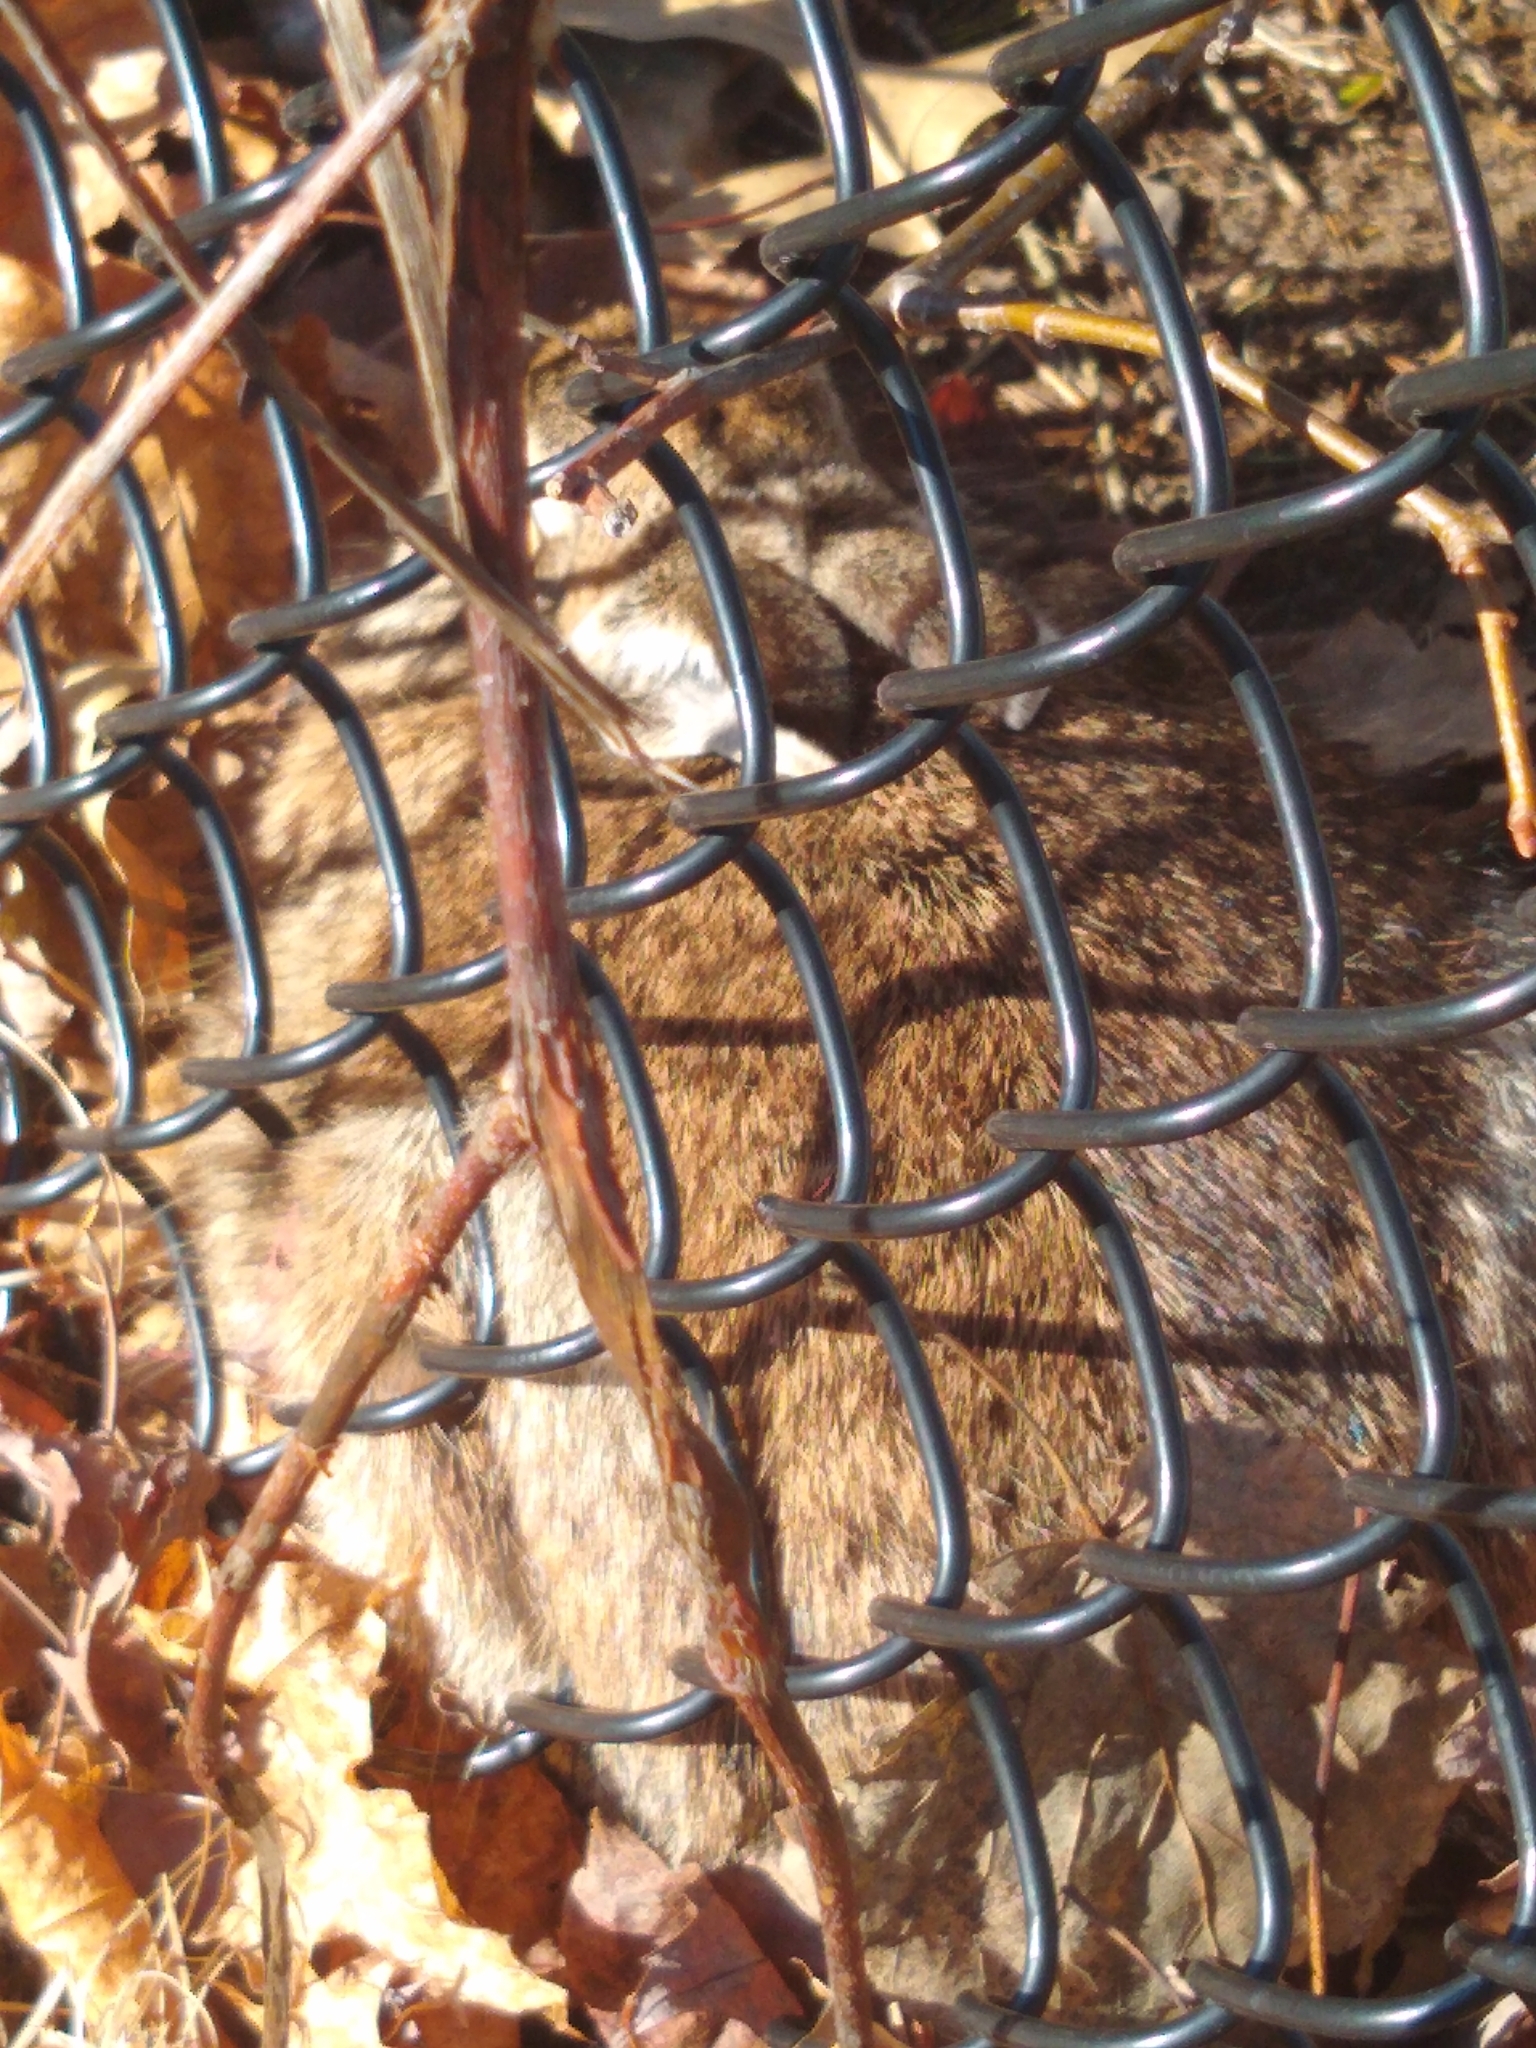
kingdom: Animalia
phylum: Chordata
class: Mammalia
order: Lagomorpha
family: Leporidae
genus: Sylvilagus
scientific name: Sylvilagus floridanus
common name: Eastern cottontail
